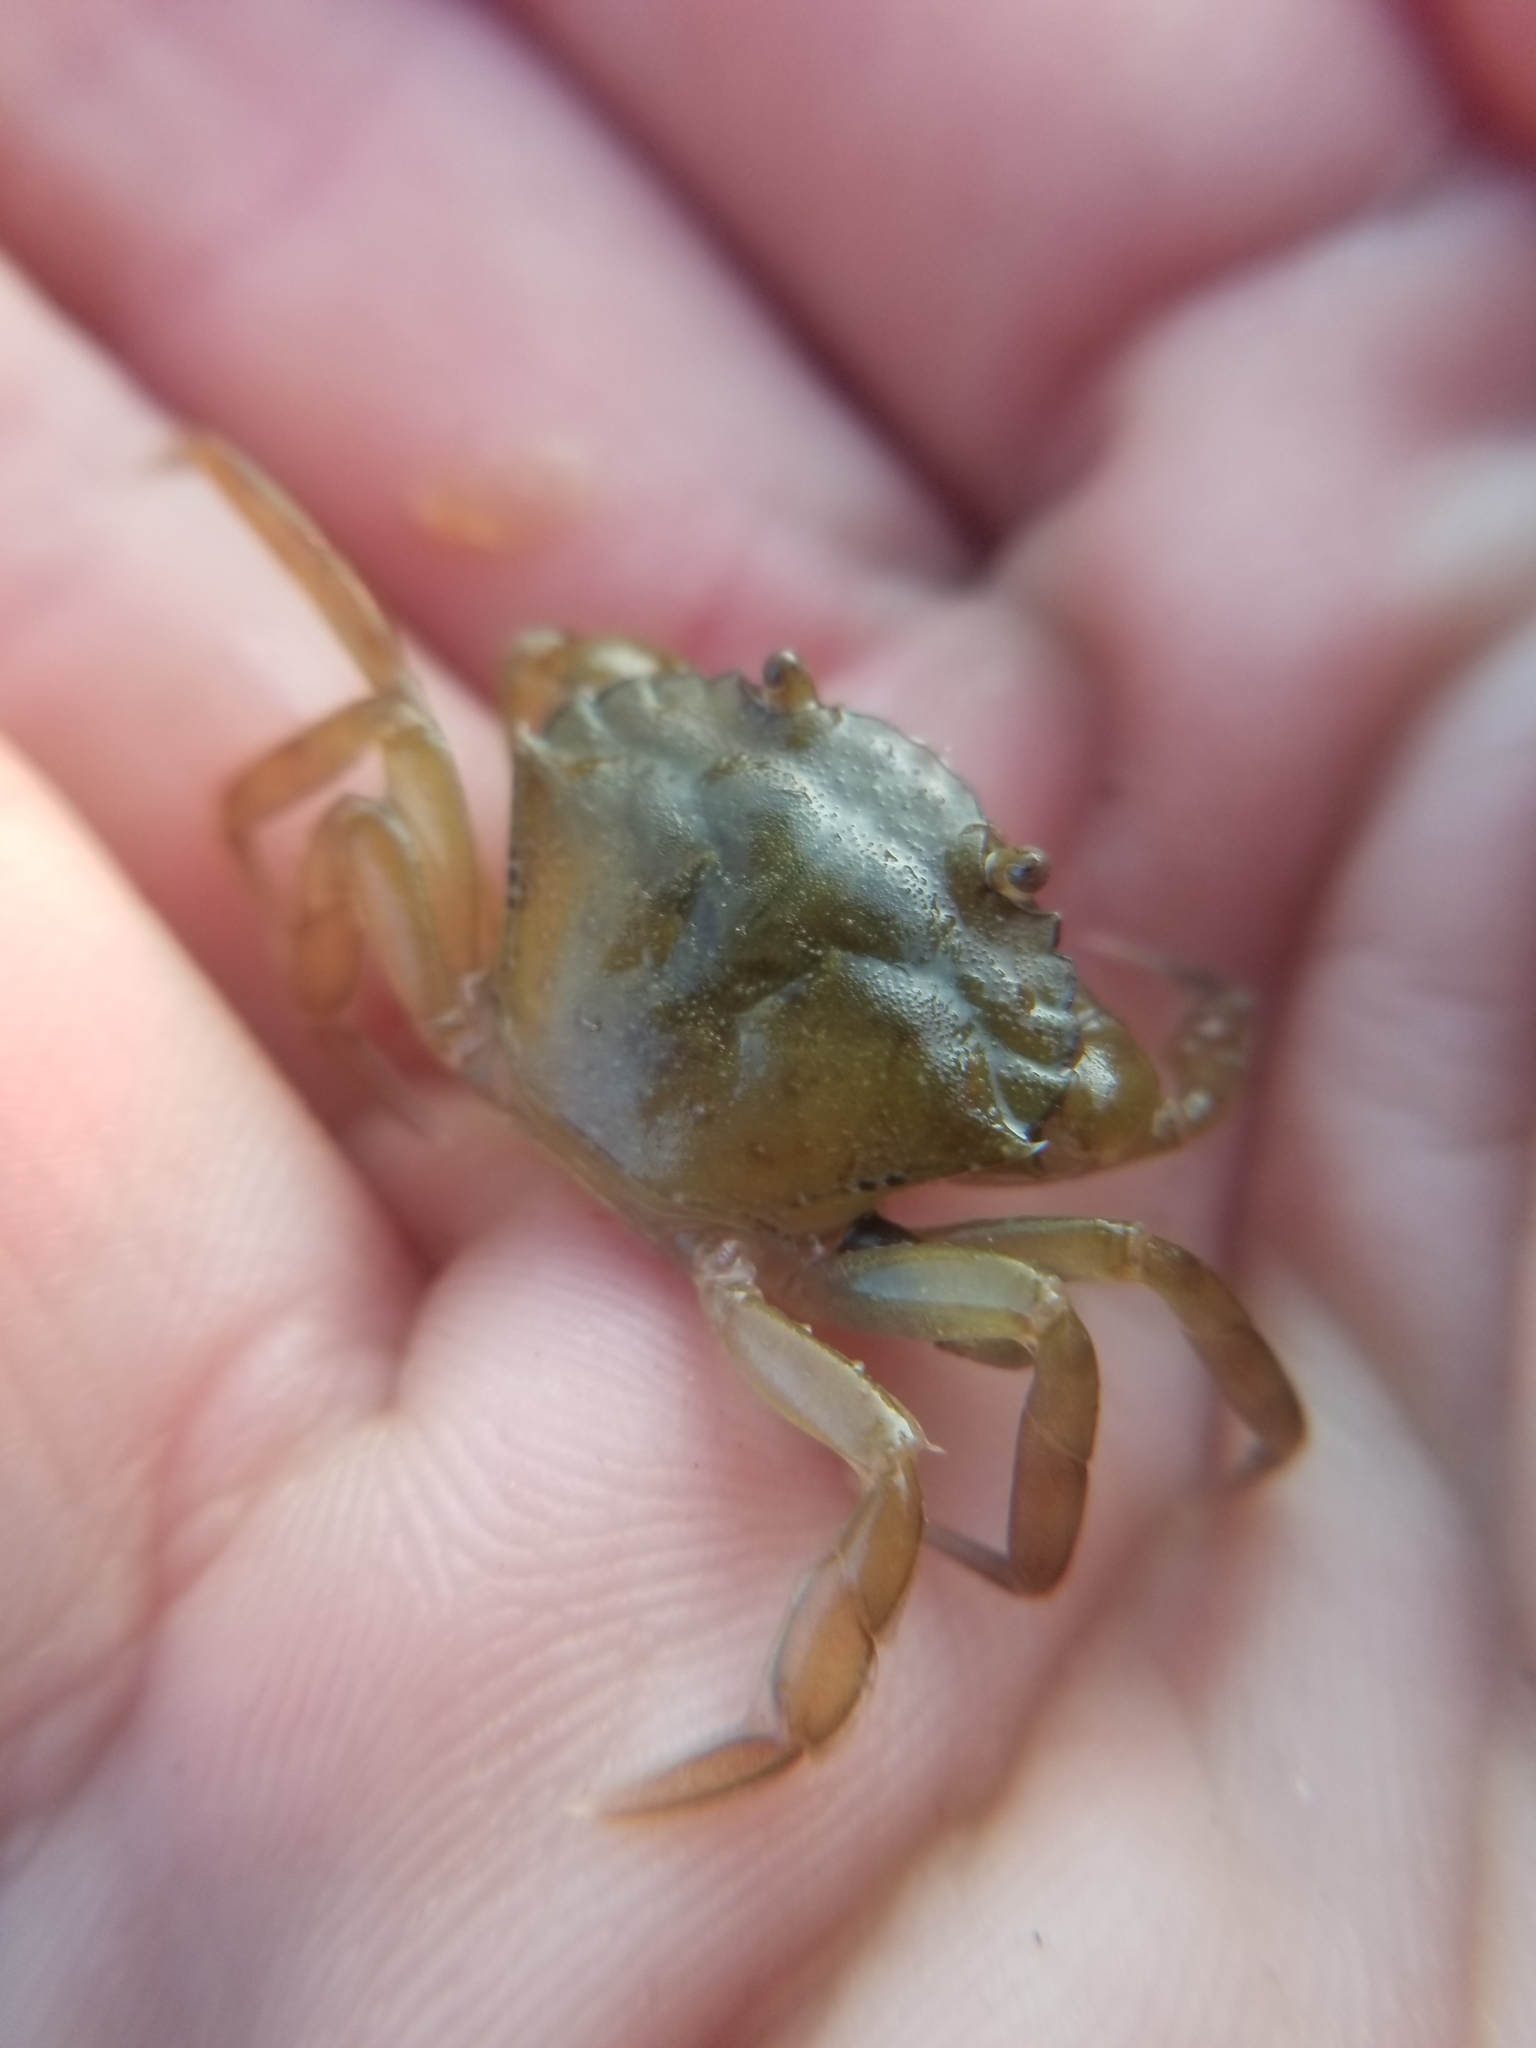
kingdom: Animalia
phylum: Arthropoda
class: Malacostraca
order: Decapoda
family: Carcinidae
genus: Carcinus
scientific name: Carcinus maenas
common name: European green crab
